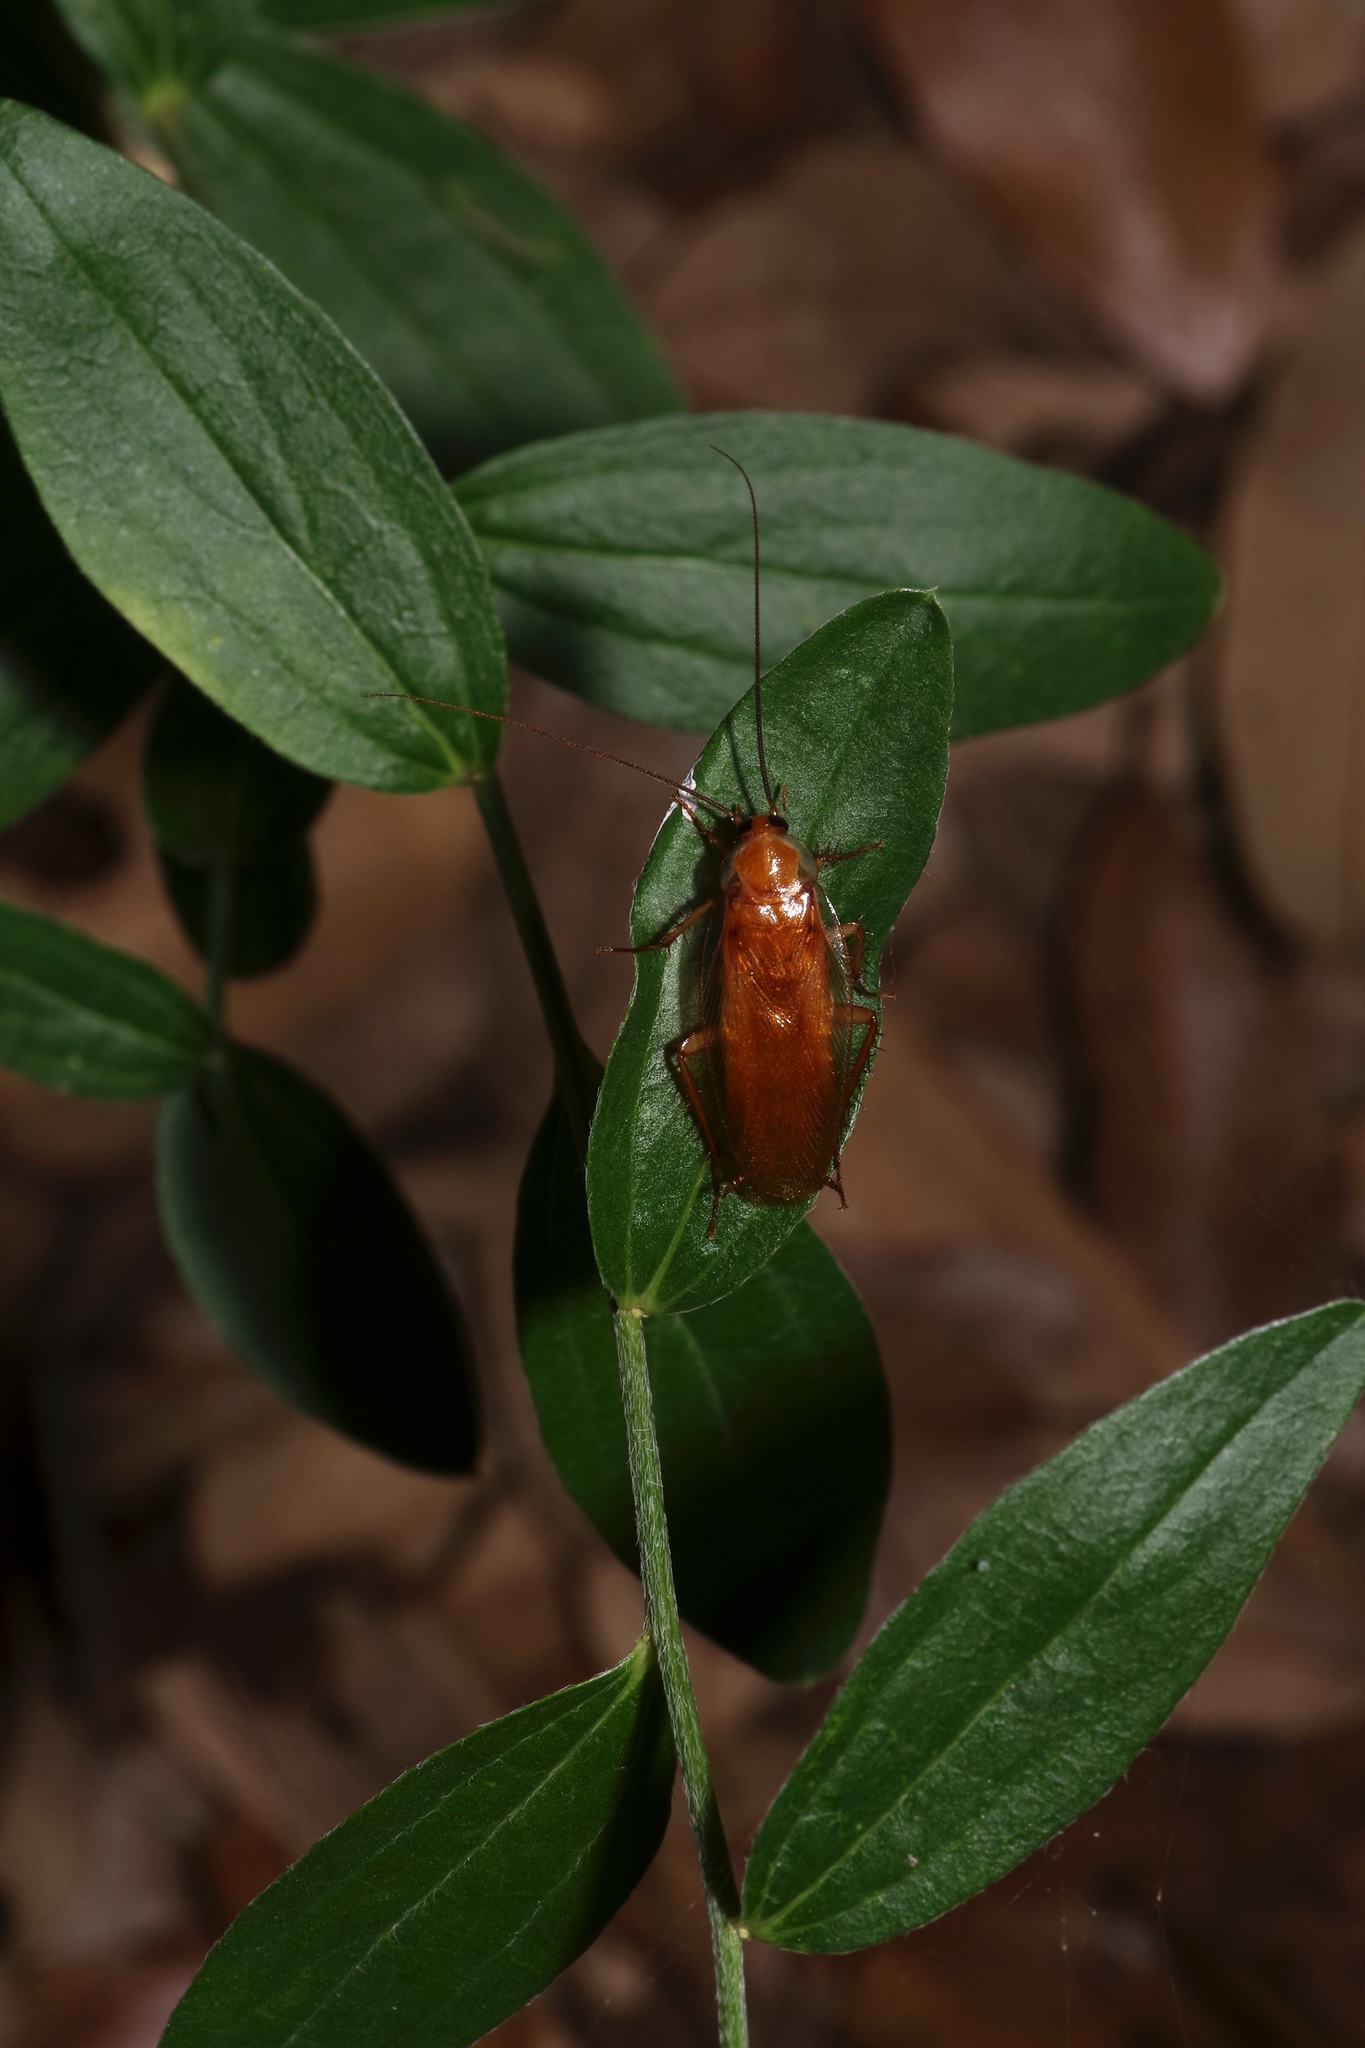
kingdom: Animalia
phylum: Arthropoda
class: Insecta
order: Blattodea
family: Ectobiidae
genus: Parcoblatta
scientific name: Parcoblatta fulvescens
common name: Fulvous wood cockroach
